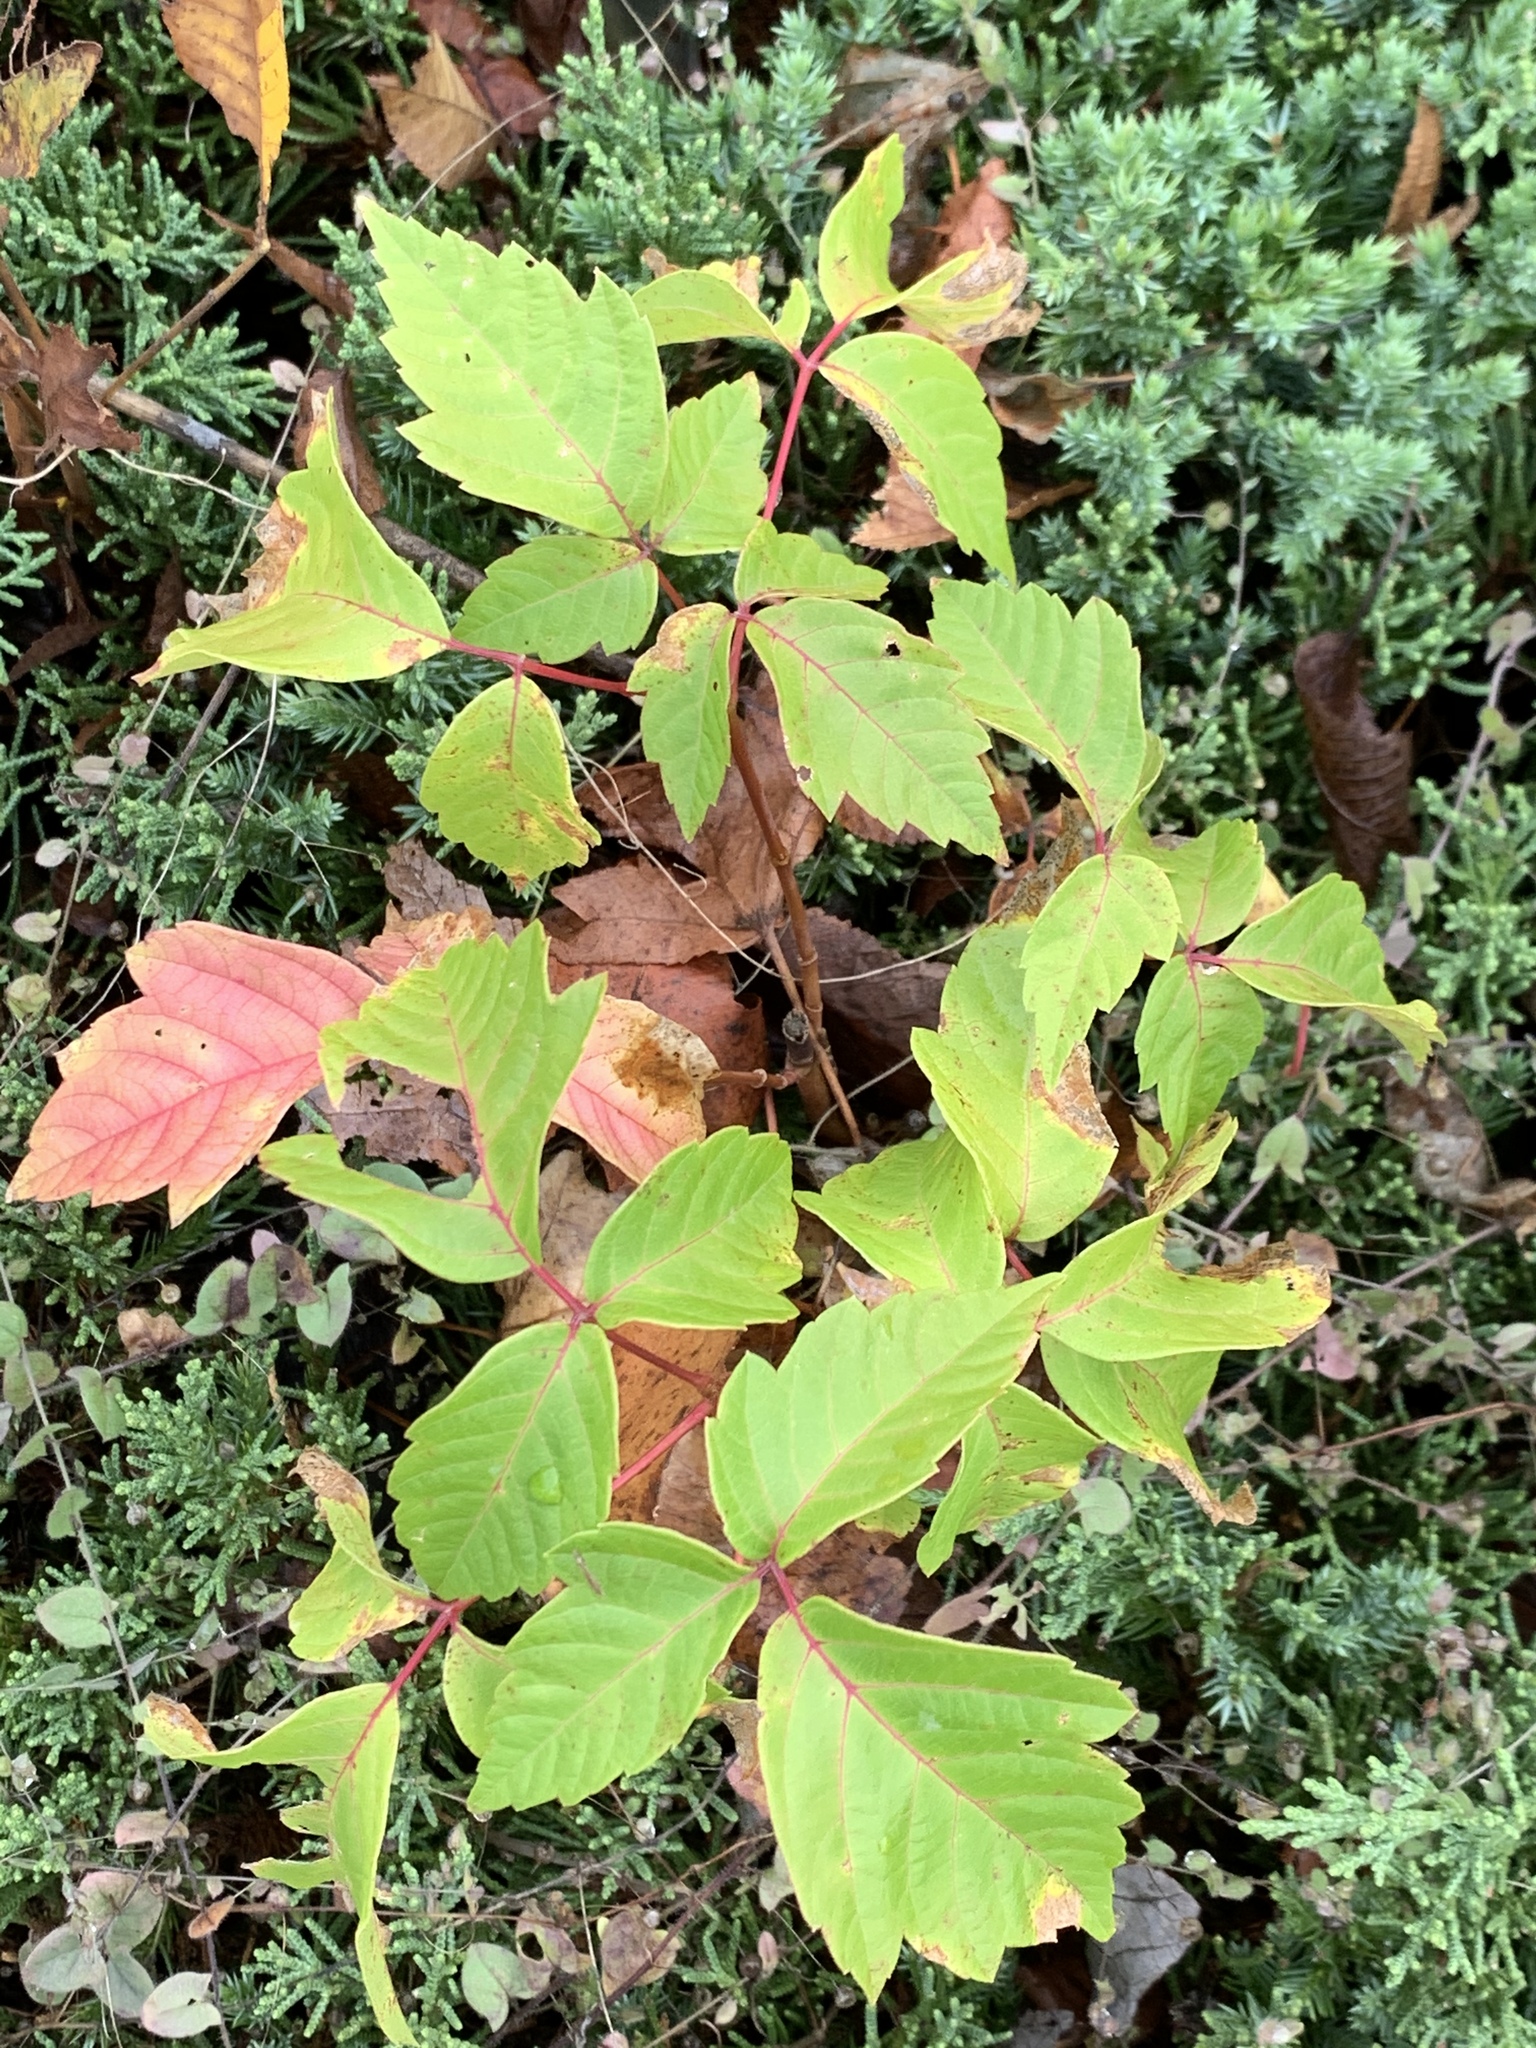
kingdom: Plantae
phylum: Tracheophyta
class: Magnoliopsida
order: Sapindales
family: Sapindaceae
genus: Acer
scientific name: Acer negundo
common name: Ashleaf maple
